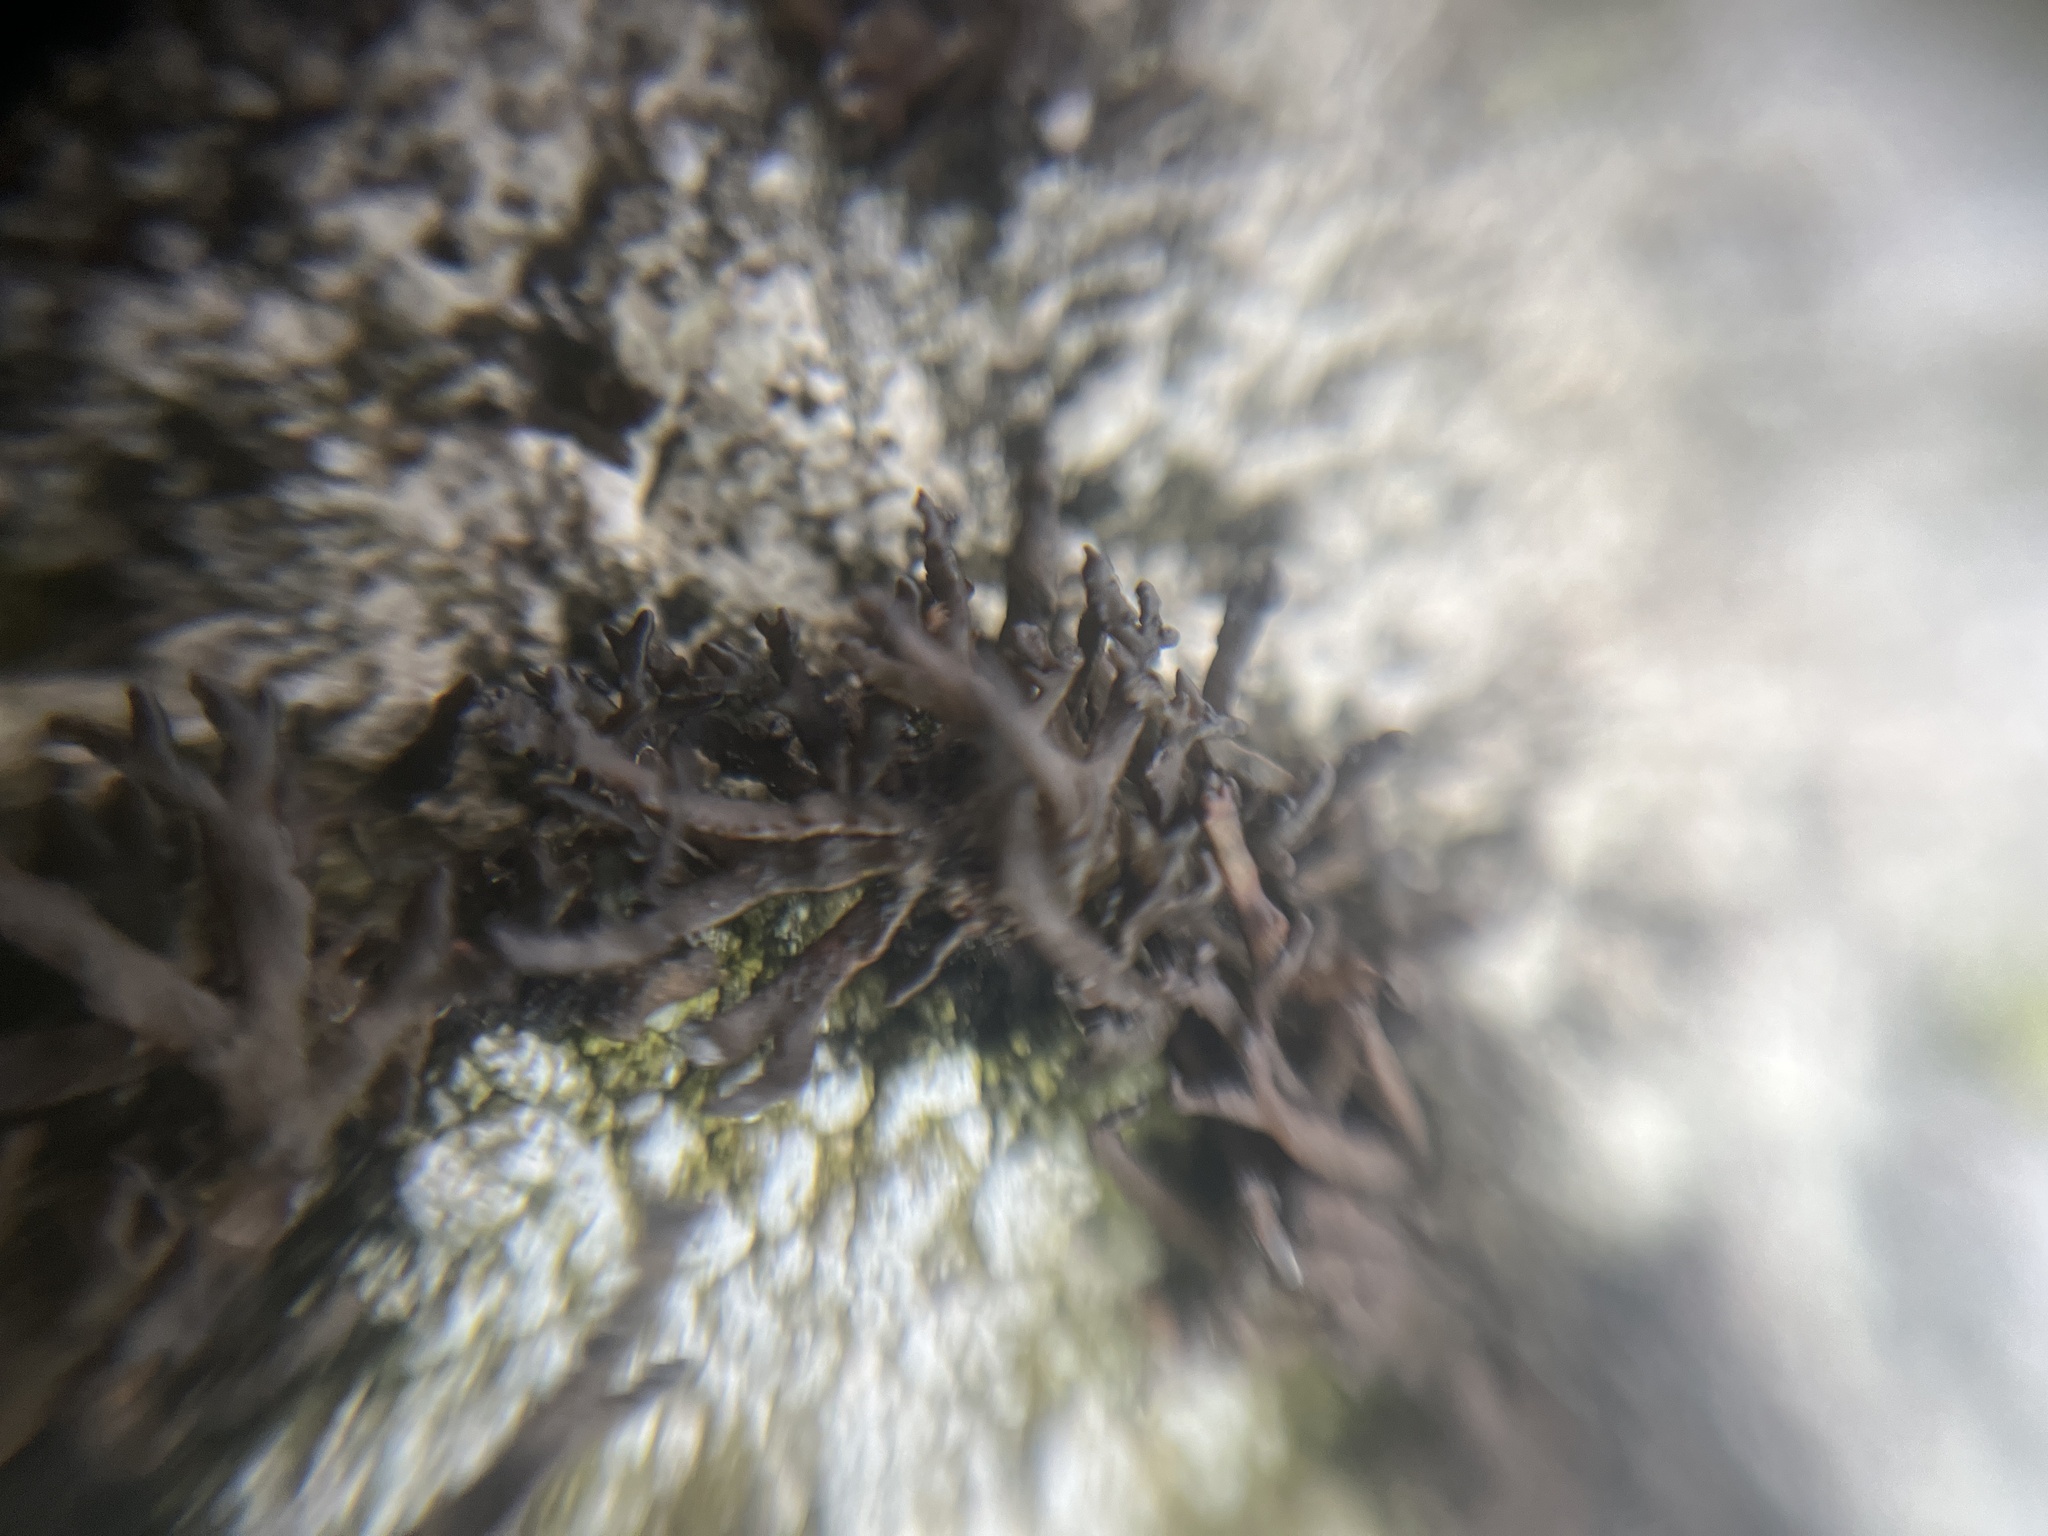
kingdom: Fungi
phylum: Ascomycota
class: Lecanoromycetes
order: Lecanorales
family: Parmeliaceae
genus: Cornicularia
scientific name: Cornicularia normoerica
